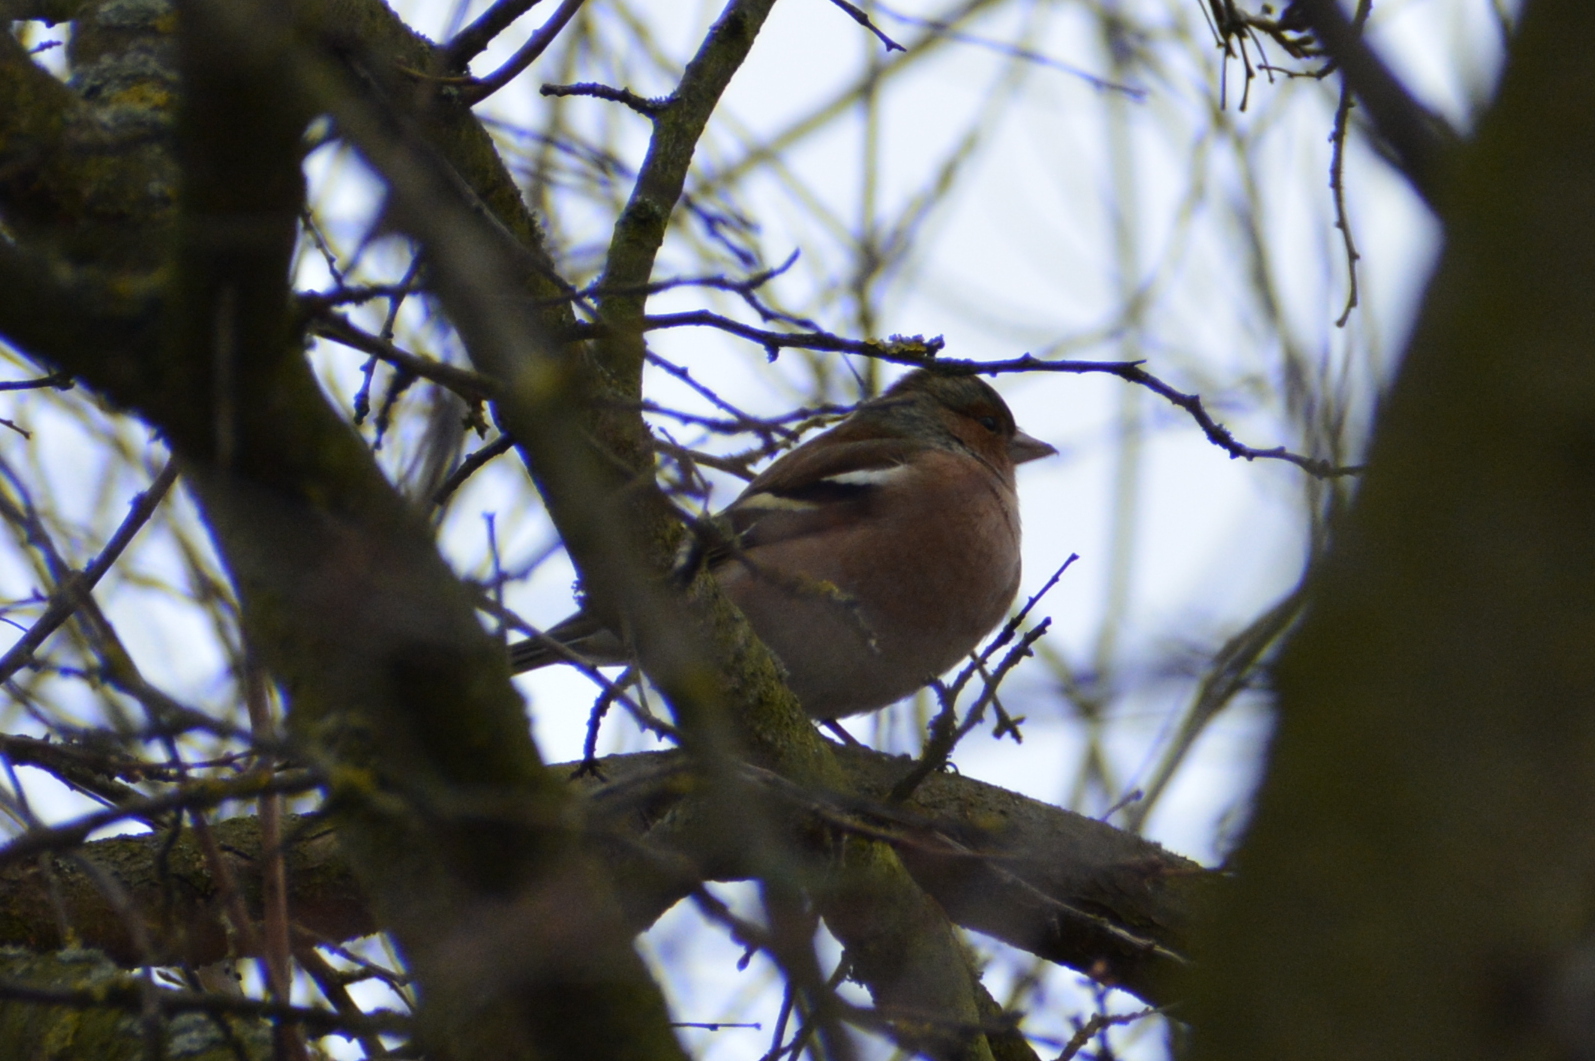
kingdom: Animalia
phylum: Chordata
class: Aves
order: Passeriformes
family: Fringillidae
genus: Fringilla
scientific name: Fringilla coelebs
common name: Common chaffinch
